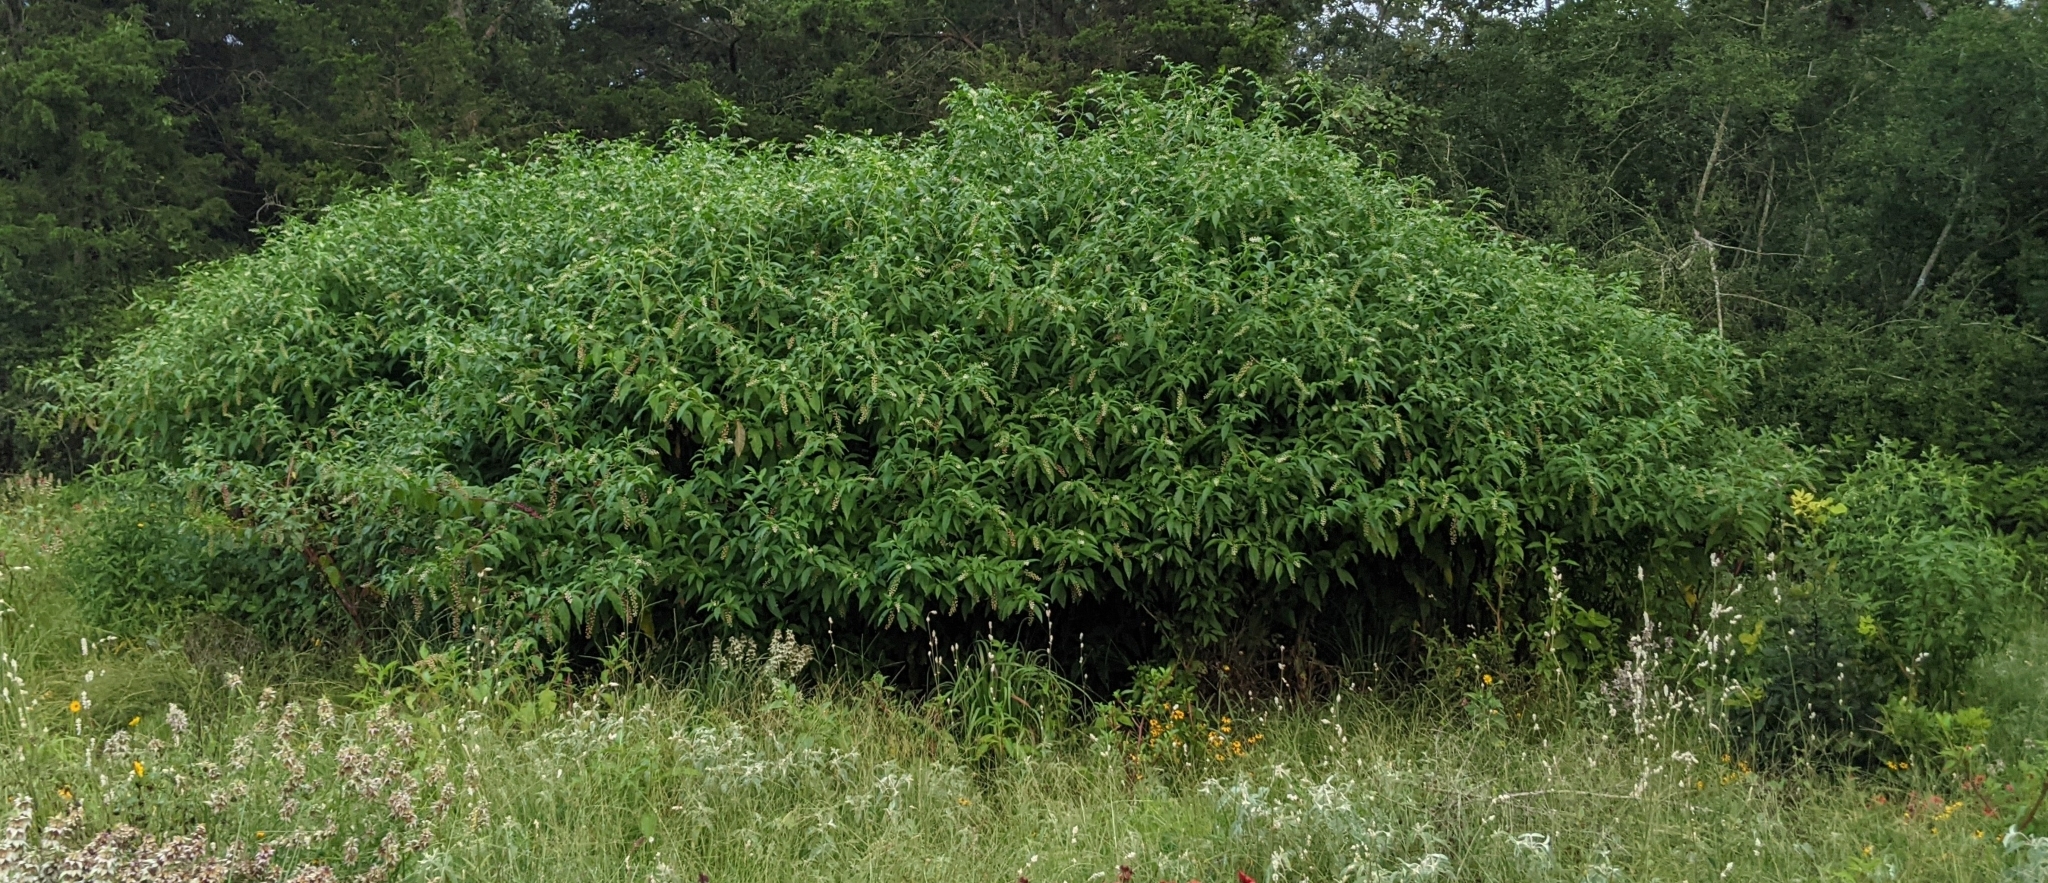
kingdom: Plantae
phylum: Tracheophyta
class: Magnoliopsida
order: Caryophyllales
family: Phytolaccaceae
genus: Phytolacca
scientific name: Phytolacca americana
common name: American pokeweed
